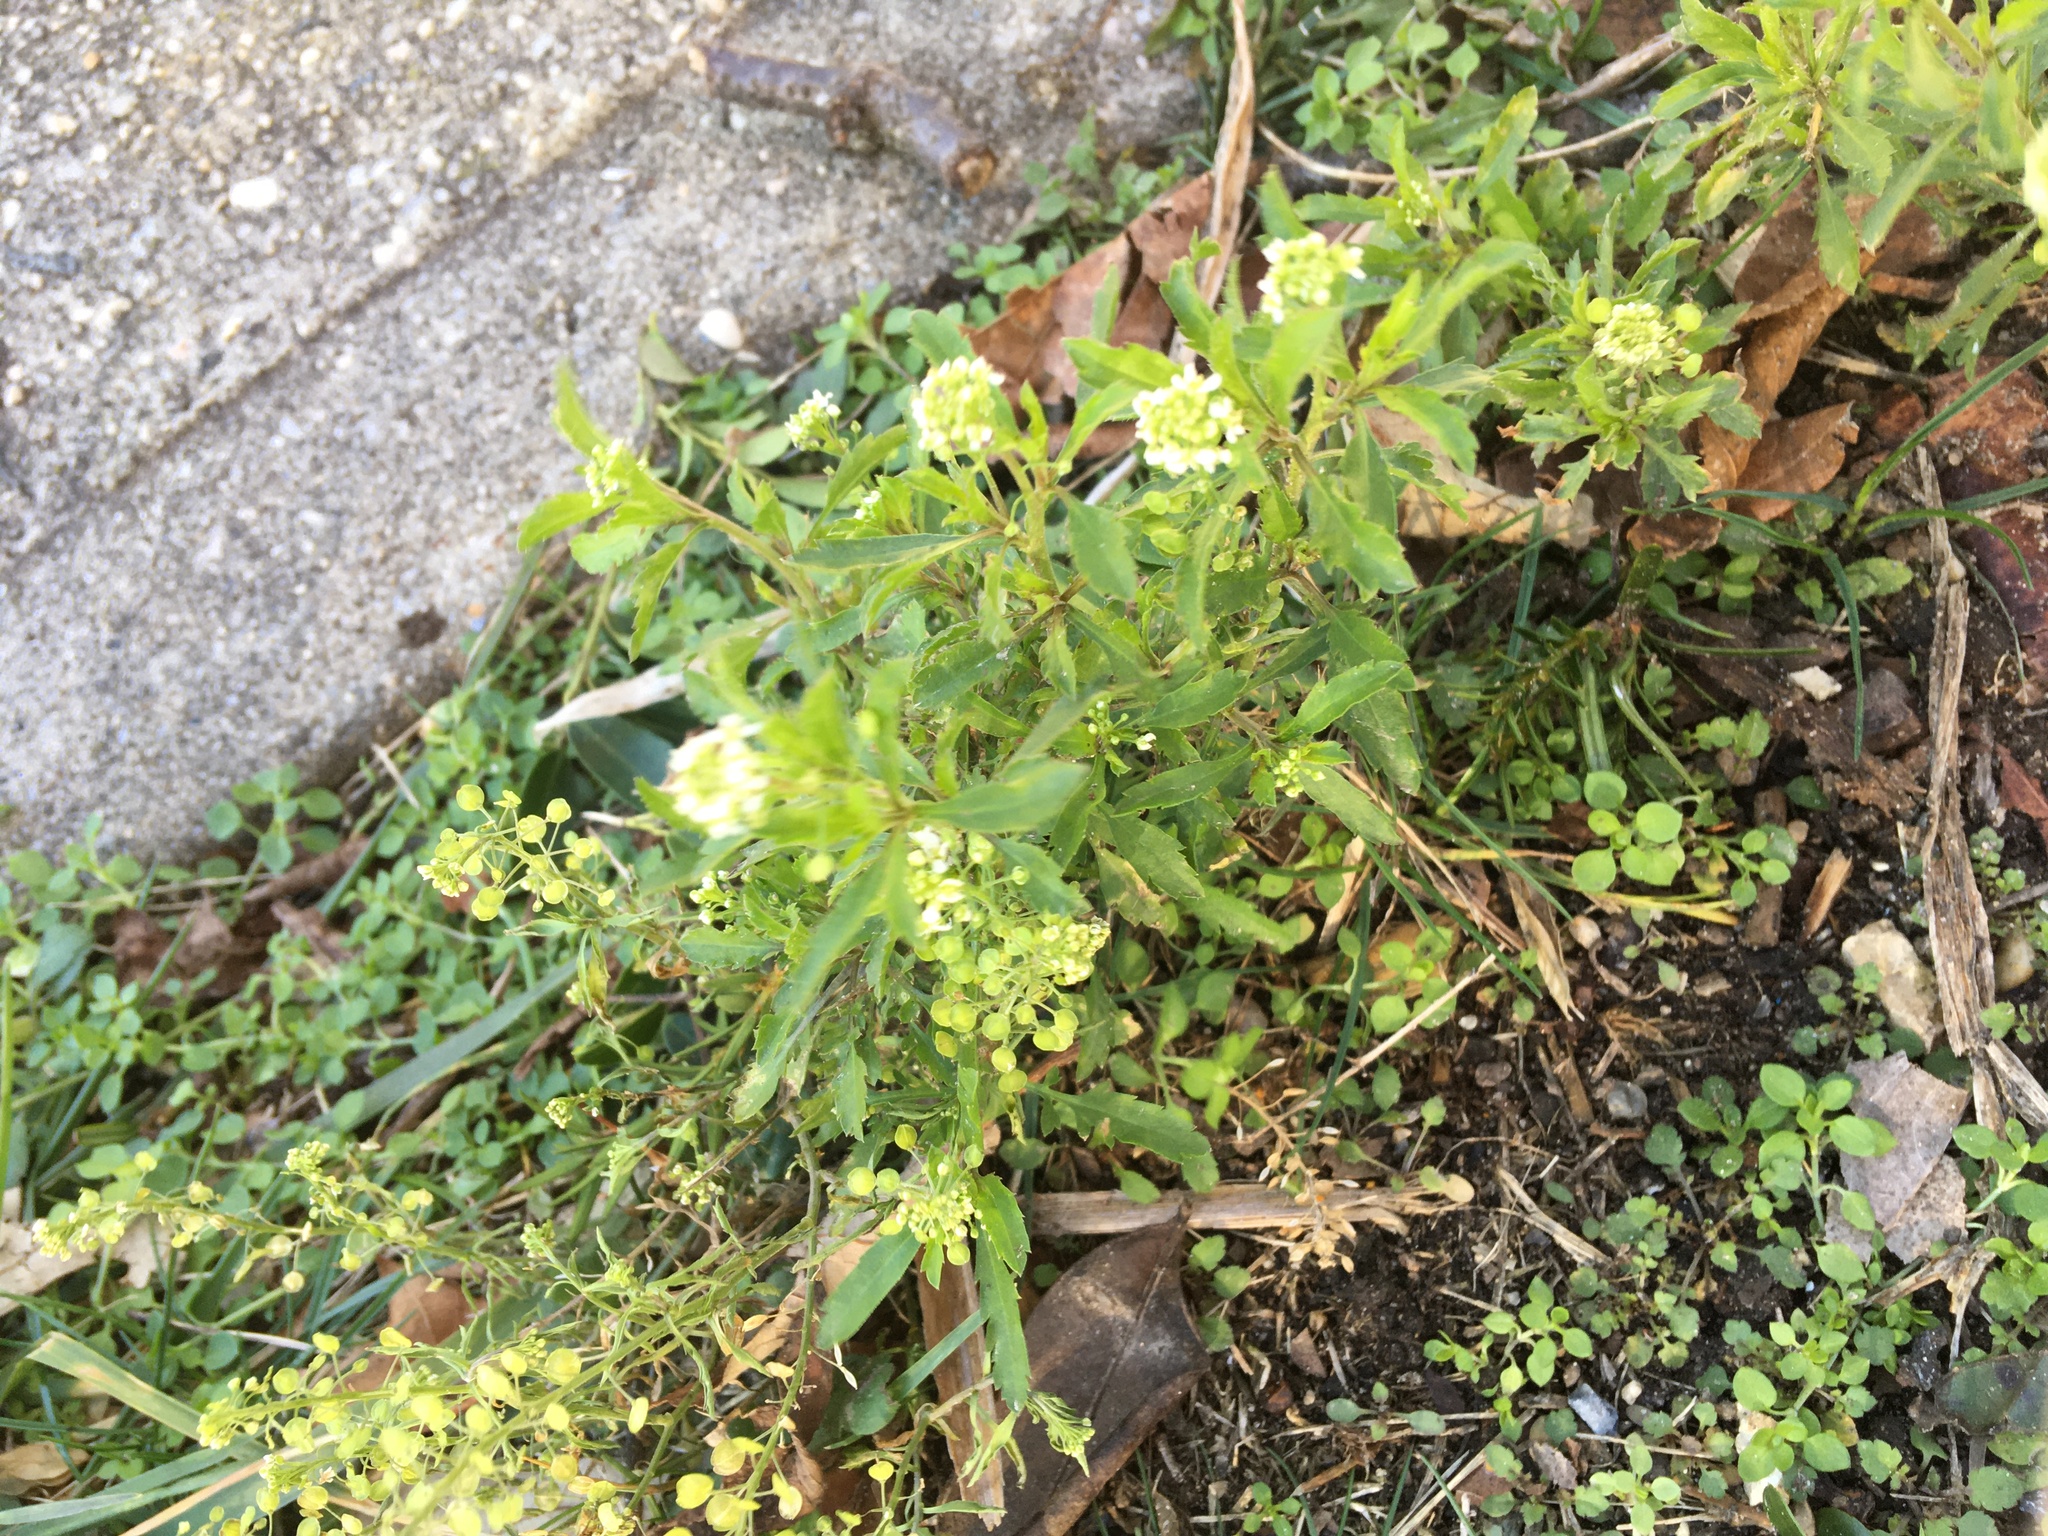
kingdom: Plantae
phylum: Tracheophyta
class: Magnoliopsida
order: Brassicales
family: Brassicaceae
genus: Lepidium
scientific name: Lepidium virginicum
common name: Least pepperwort
